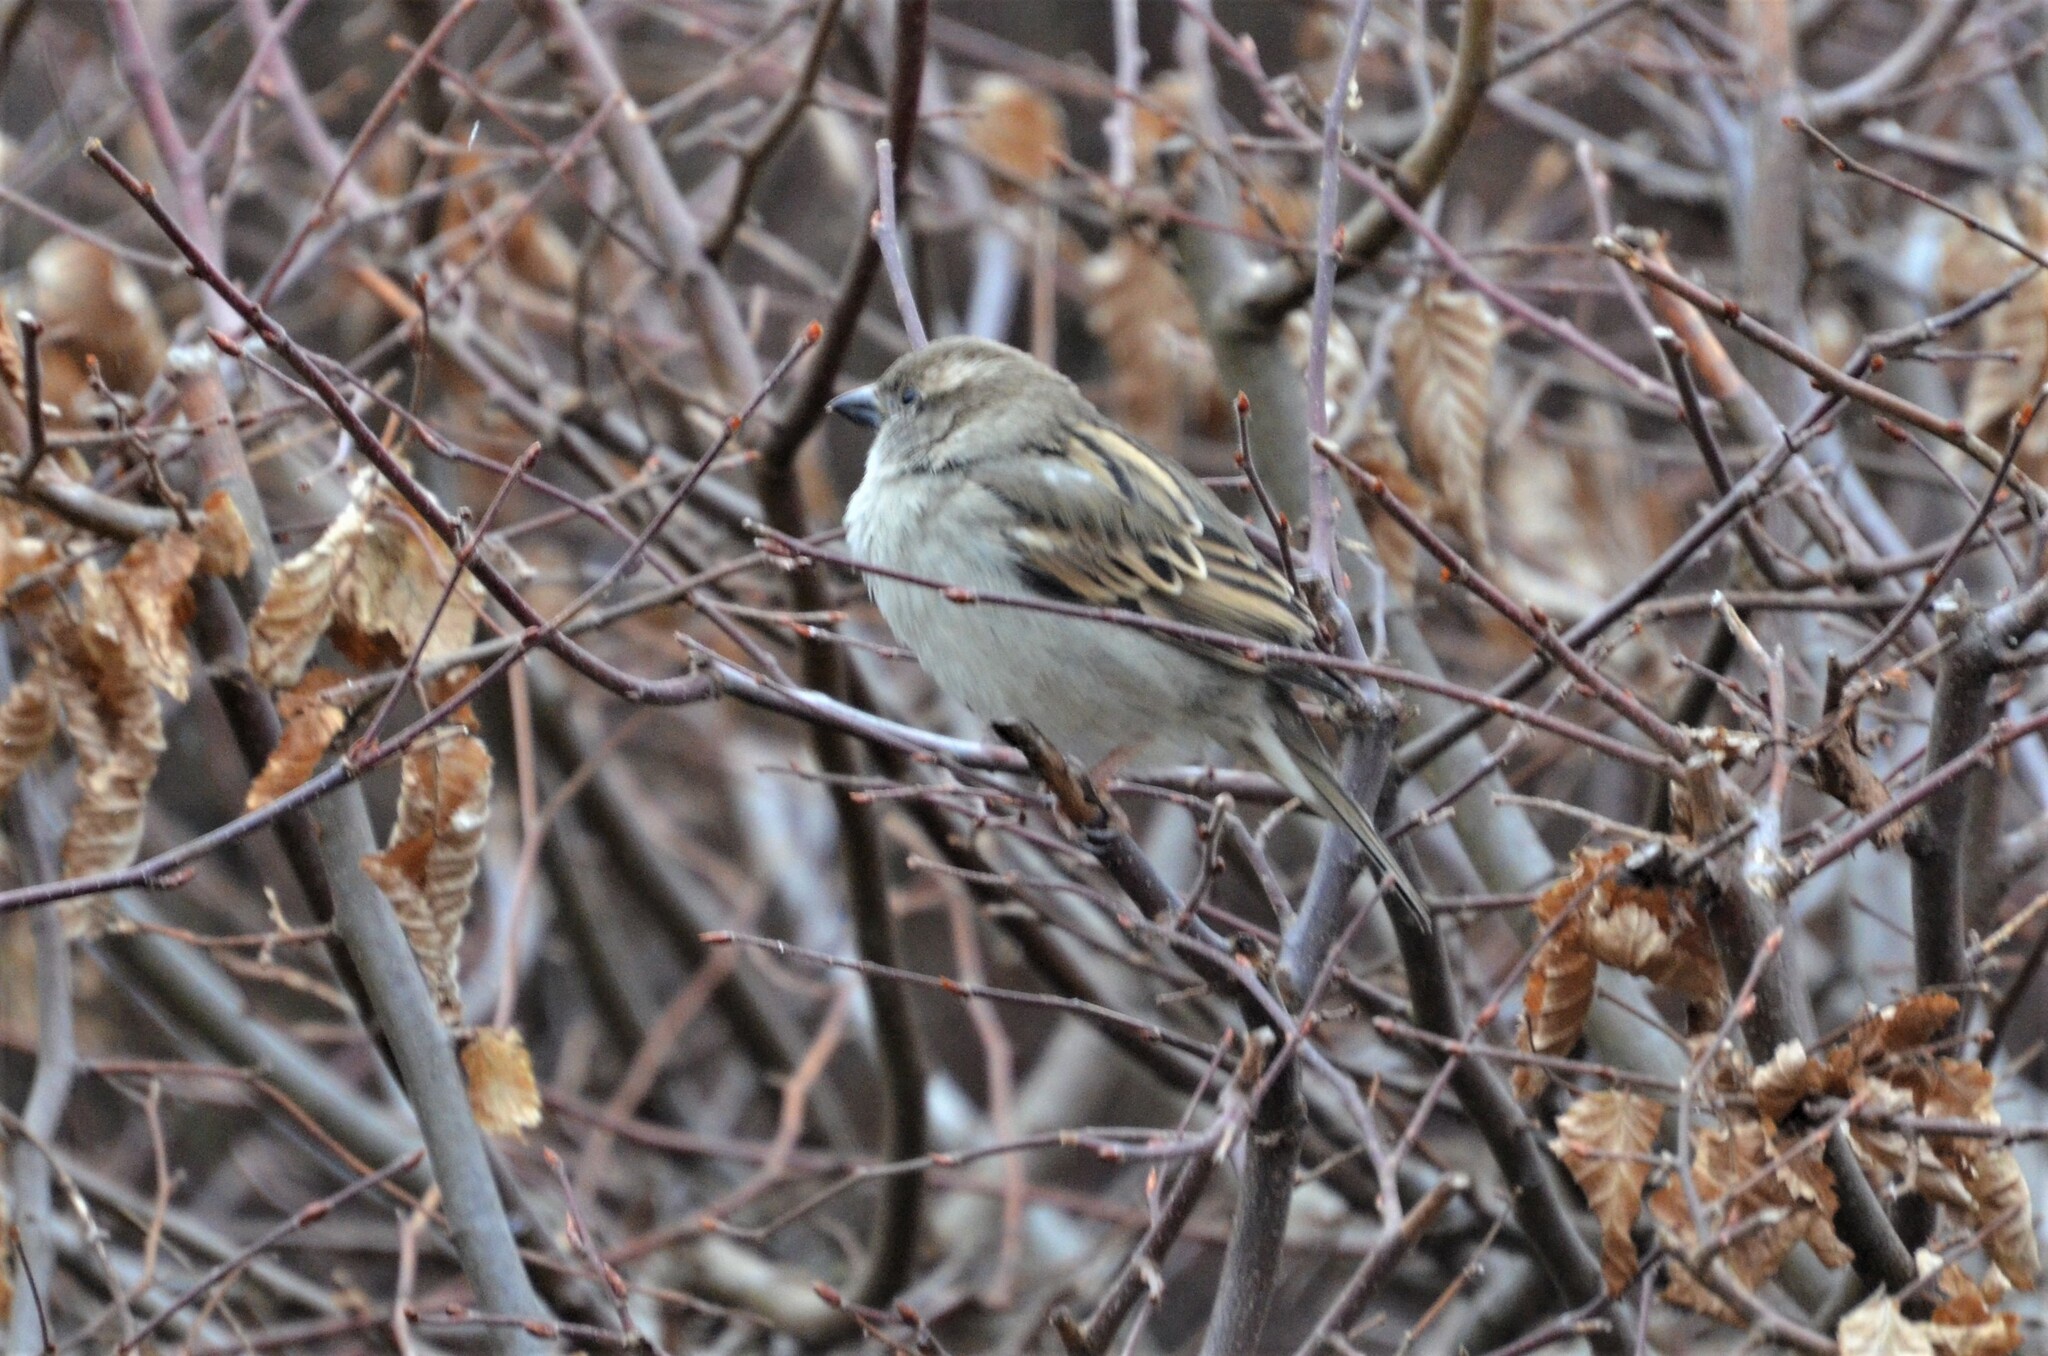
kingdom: Animalia
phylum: Chordata
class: Aves
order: Passeriformes
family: Passeridae
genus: Passer
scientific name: Passer domesticus
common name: House sparrow
